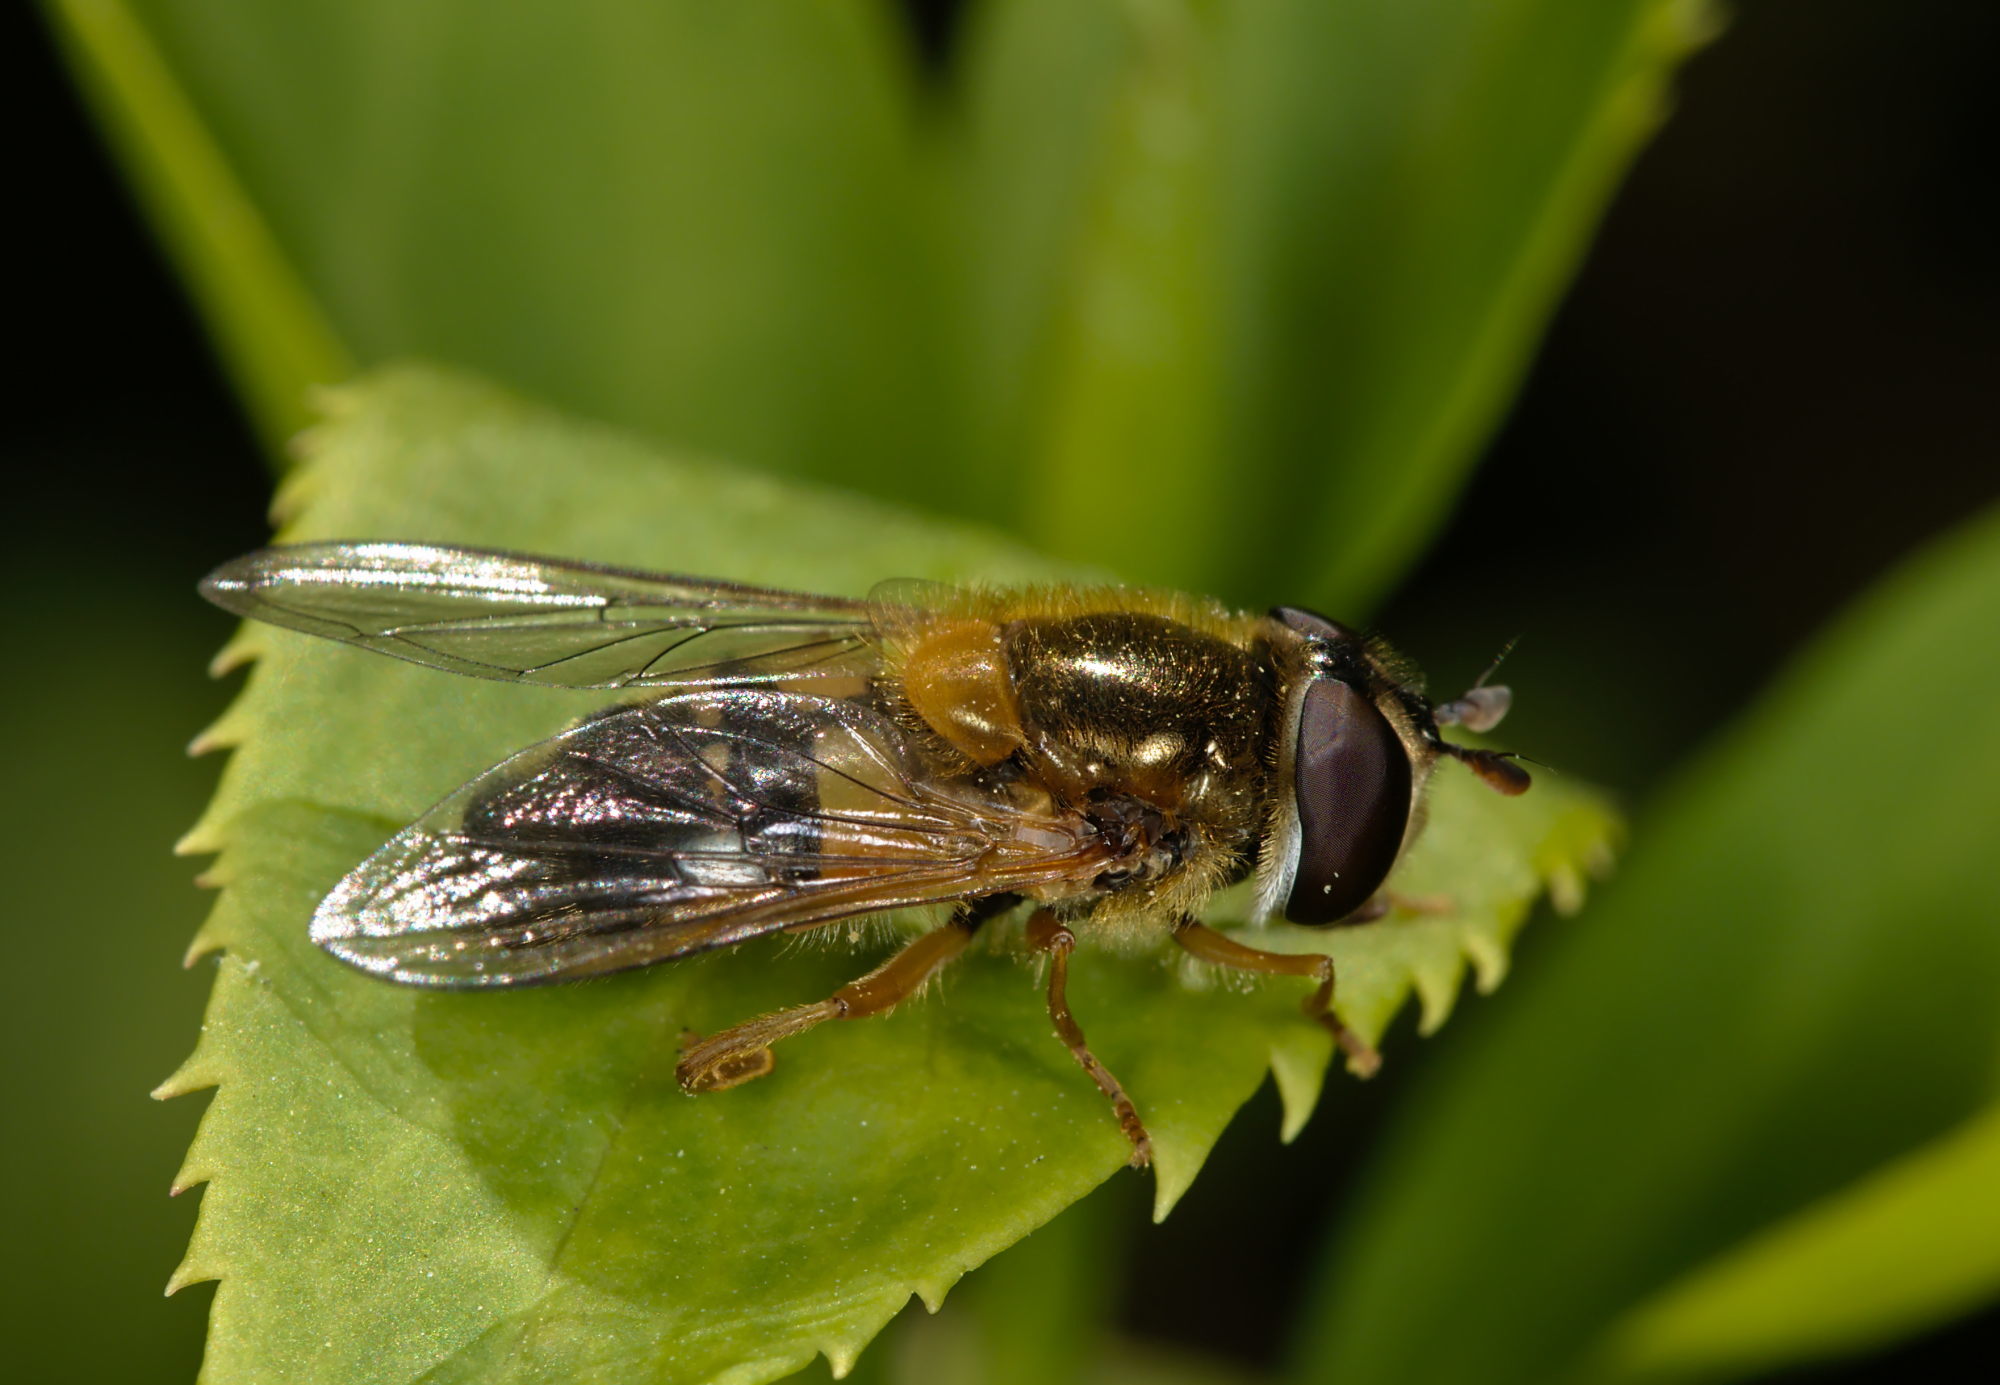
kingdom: Animalia
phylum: Arthropoda
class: Insecta
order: Diptera
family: Syrphidae
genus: Epistrophe
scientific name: Epistrophe eligans
